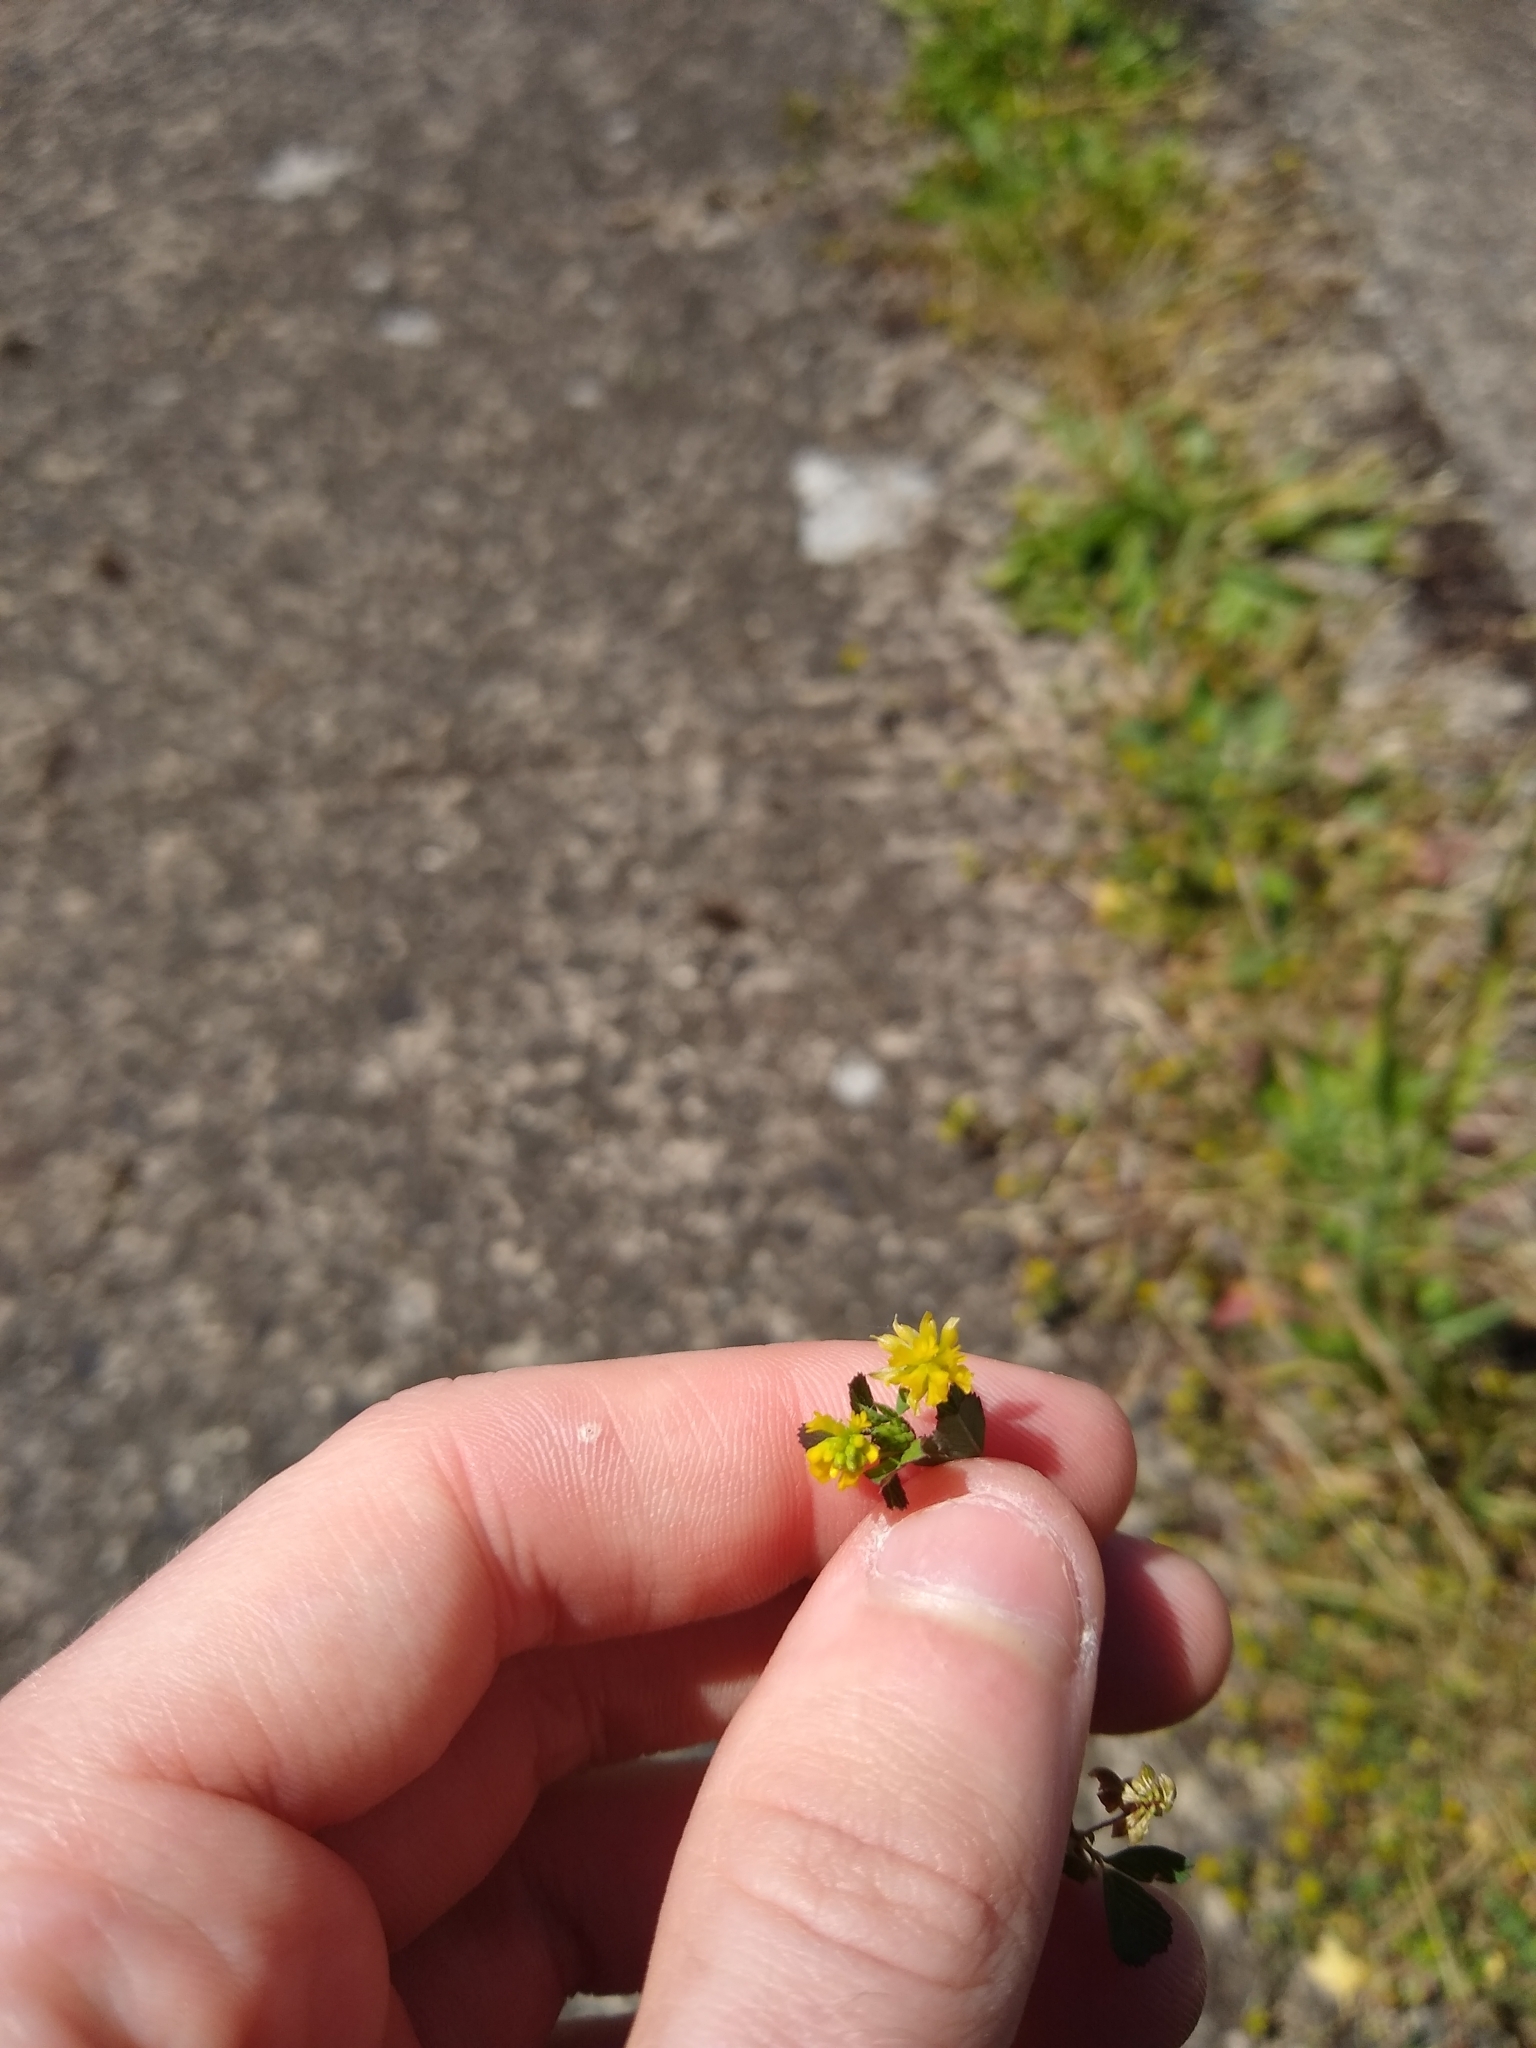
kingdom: Plantae
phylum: Tracheophyta
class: Magnoliopsida
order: Fabales
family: Fabaceae
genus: Trifolium
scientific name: Trifolium dubium
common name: Suckling clover
